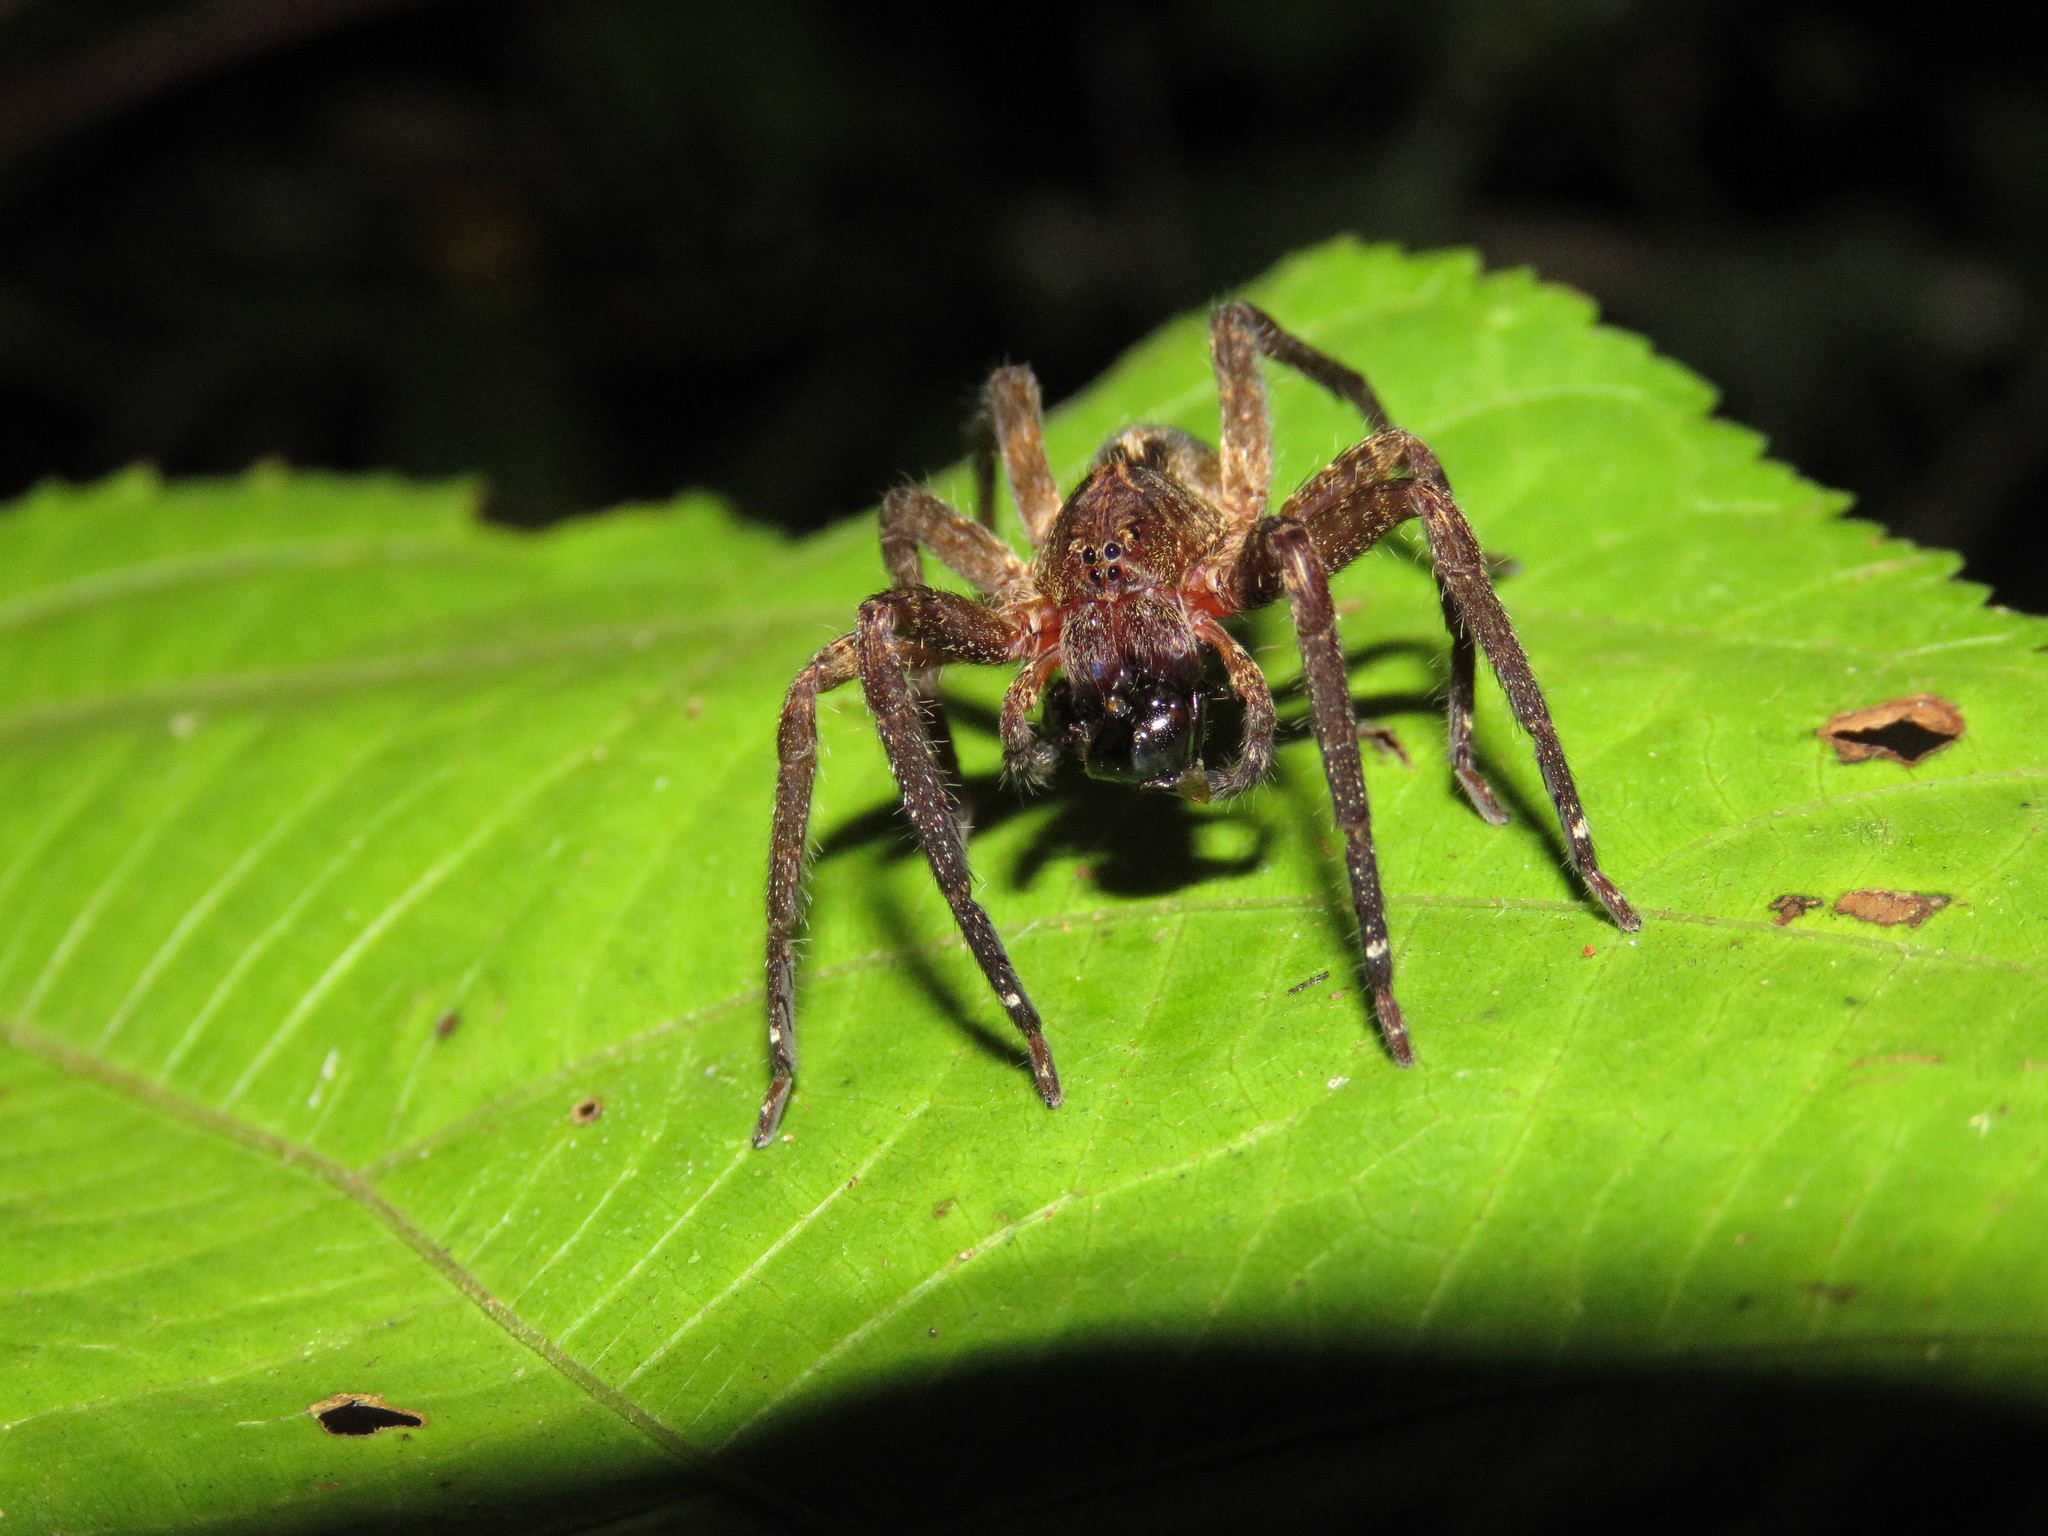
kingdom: Animalia
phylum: Arthropoda
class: Arachnida
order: Araneae
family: Ctenidae
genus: Ctenus
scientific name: Ctenus crulsi
